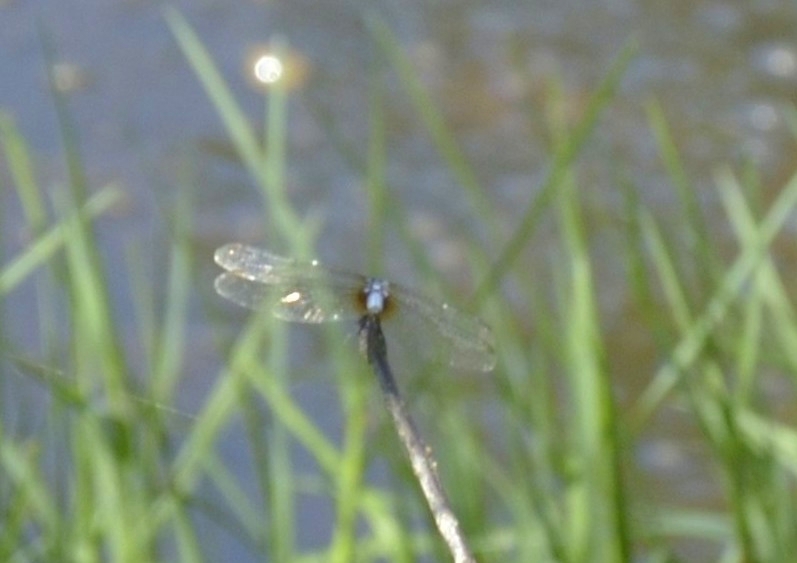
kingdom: Animalia
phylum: Arthropoda
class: Insecta
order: Odonata
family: Libellulidae
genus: Brachydiplax
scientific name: Brachydiplax chalybea
